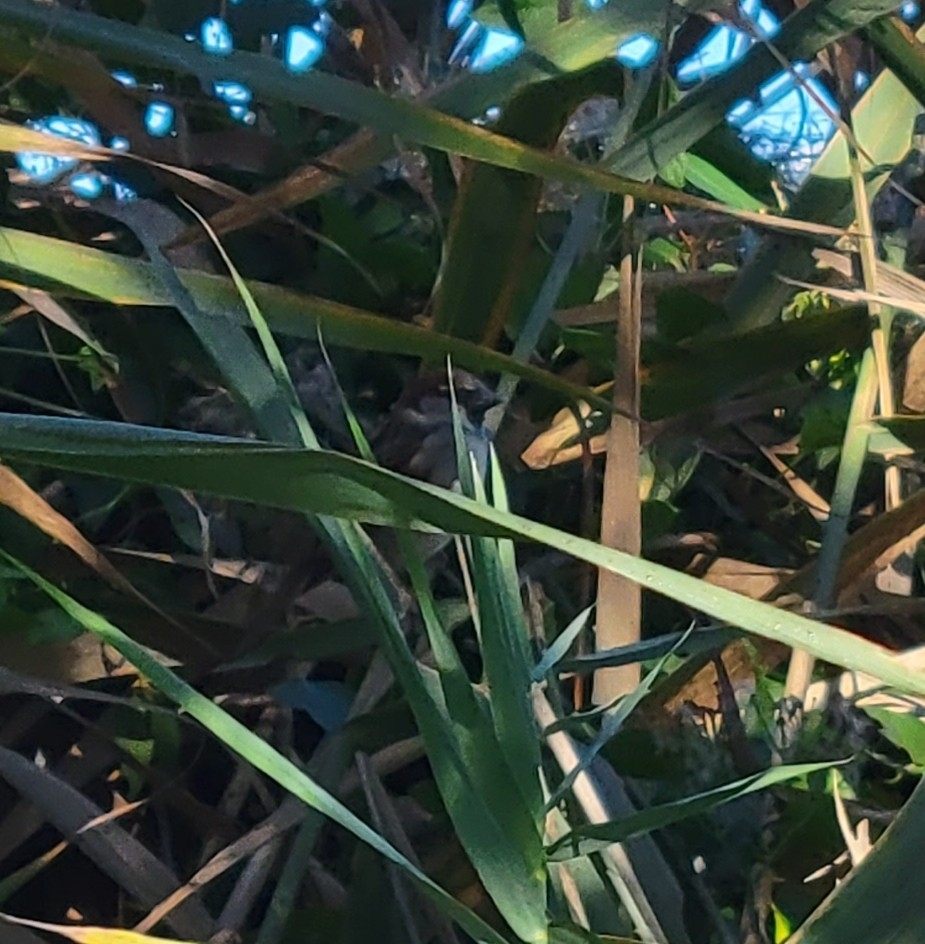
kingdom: Animalia
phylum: Chordata
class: Aves
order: Passeriformes
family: Passeridae
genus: Passer
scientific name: Passer domesticus
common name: House sparrow
